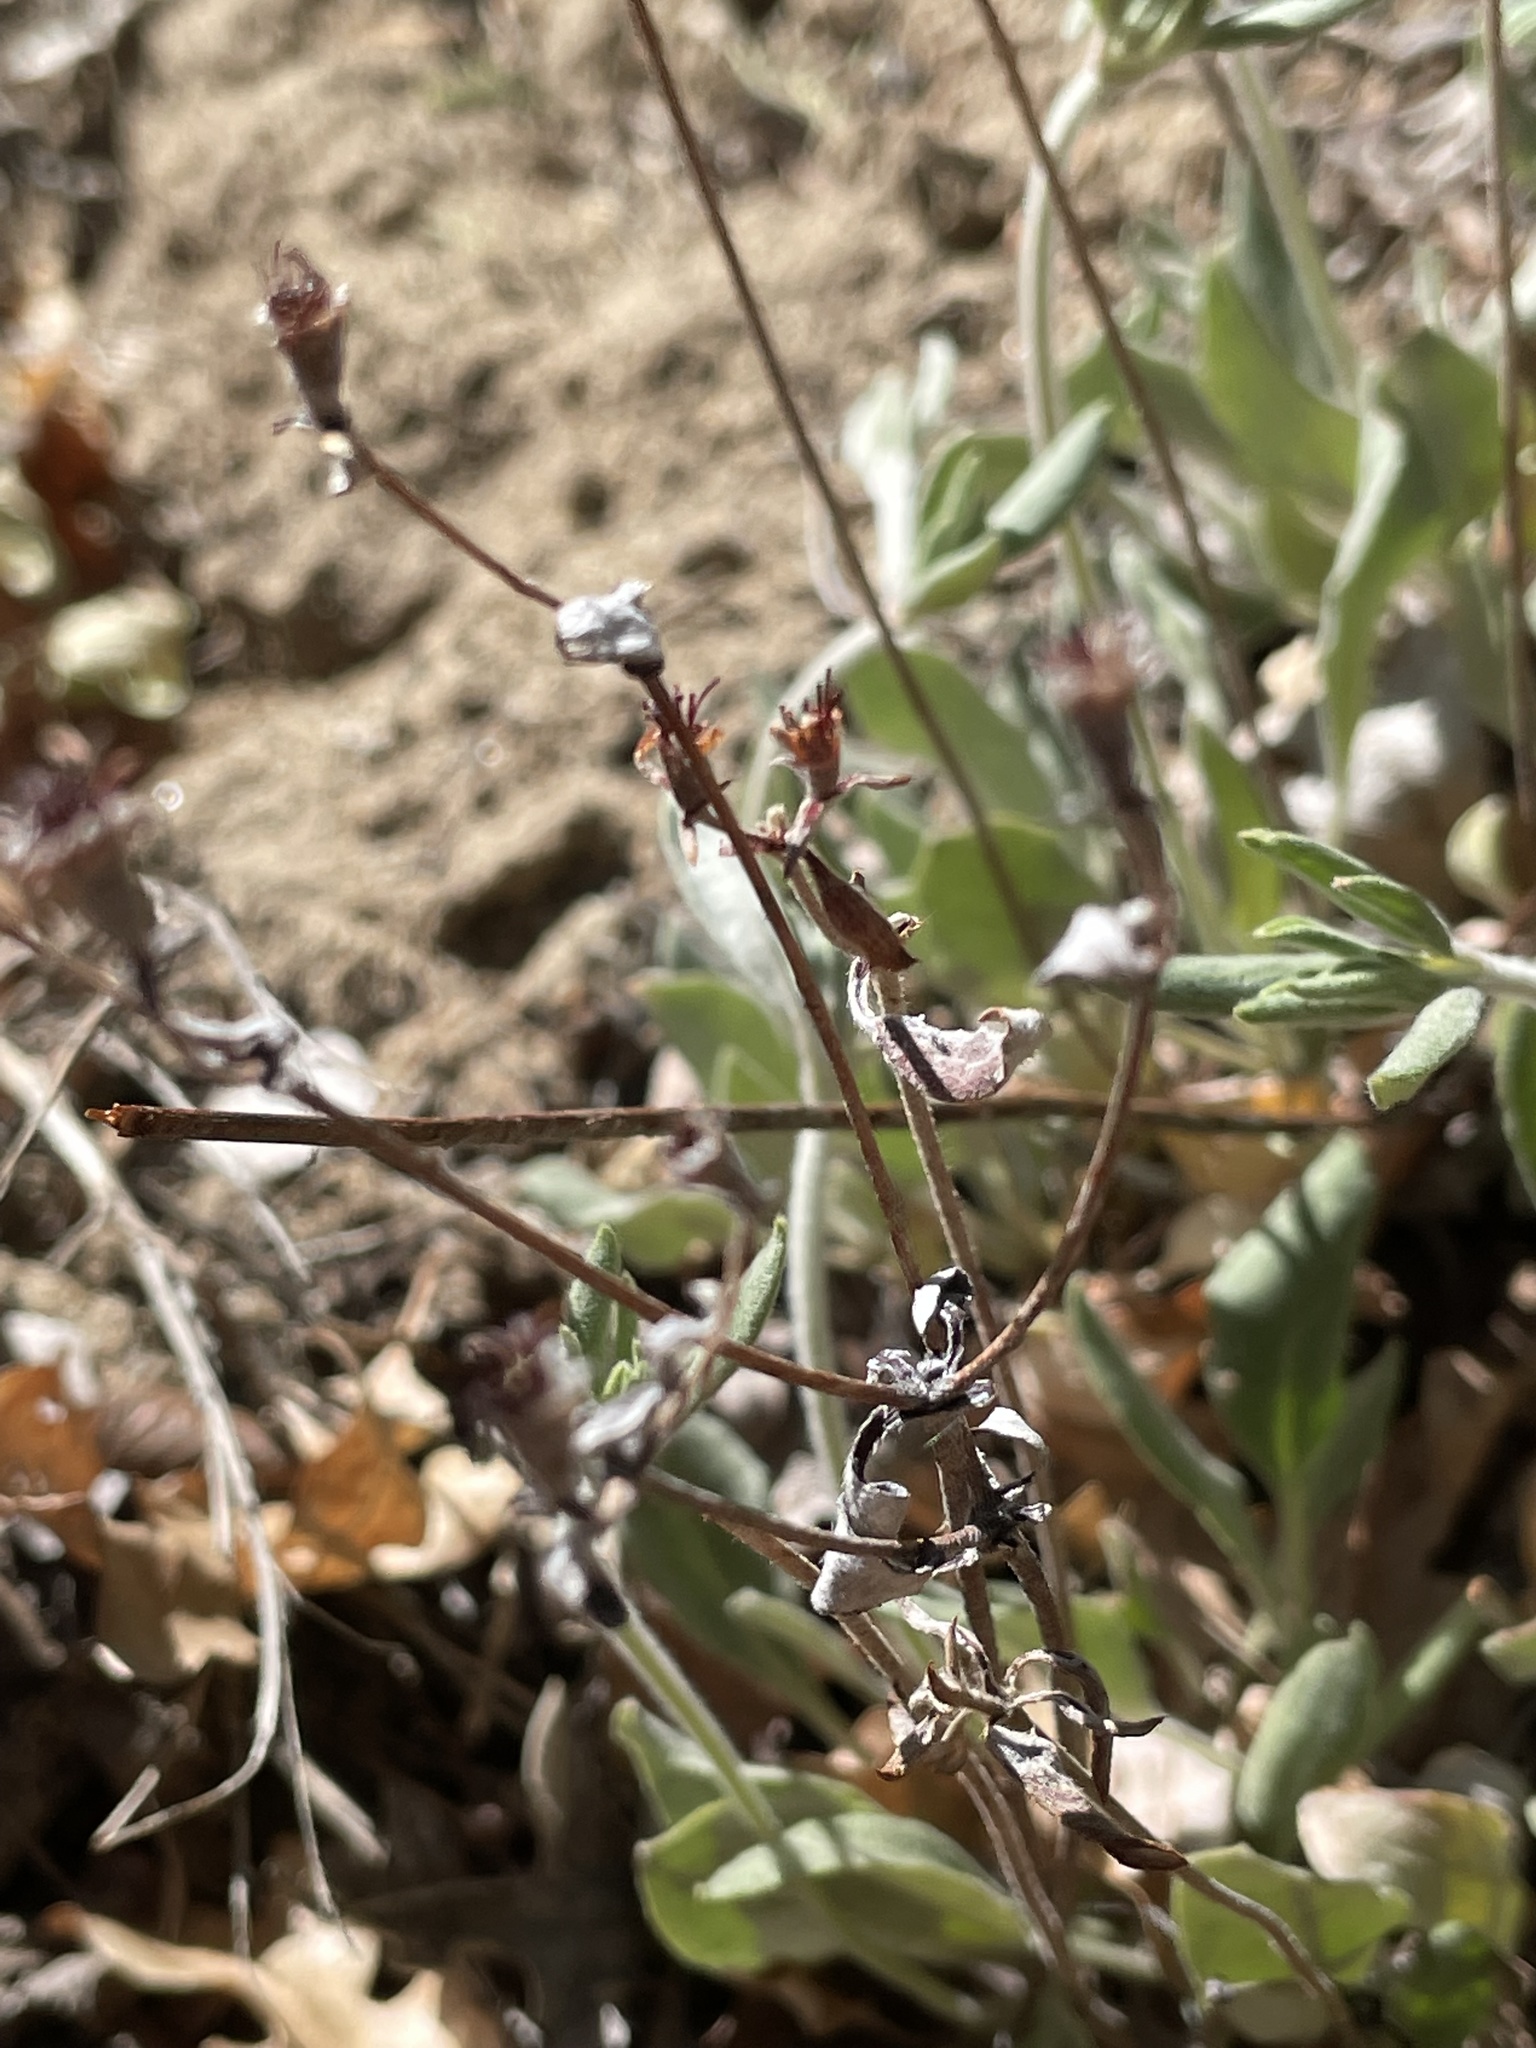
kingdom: Plantae
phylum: Tracheophyta
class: Magnoliopsida
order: Caryophyllales
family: Polygonaceae
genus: Eriogonum
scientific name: Eriogonum jamesii
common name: Antelope-sage
